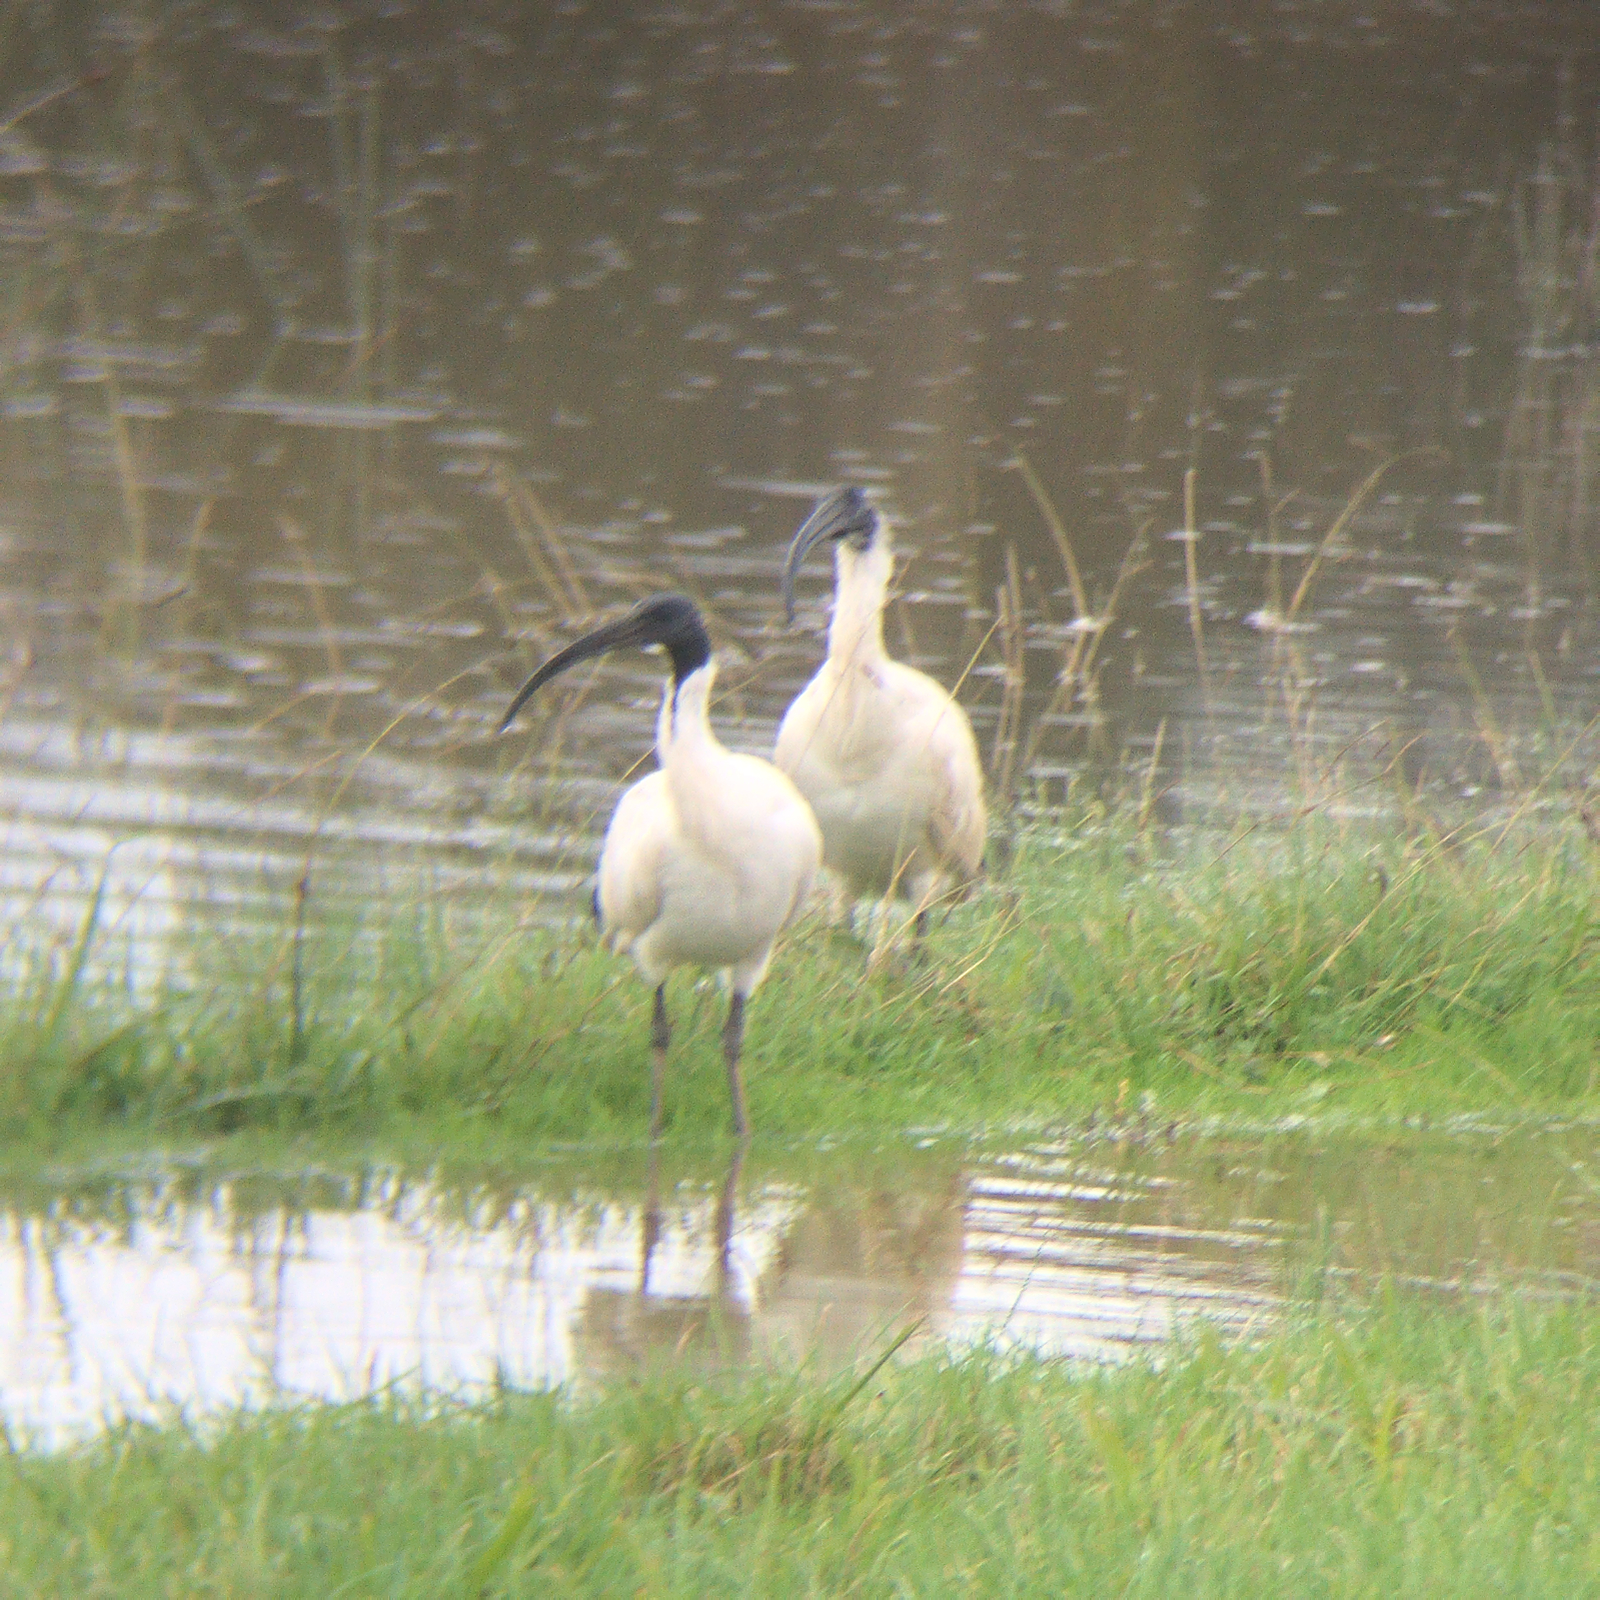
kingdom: Animalia
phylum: Chordata
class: Aves
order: Pelecaniformes
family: Threskiornithidae
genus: Threskiornis
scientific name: Threskiornis molucca
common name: Australian white ibis
